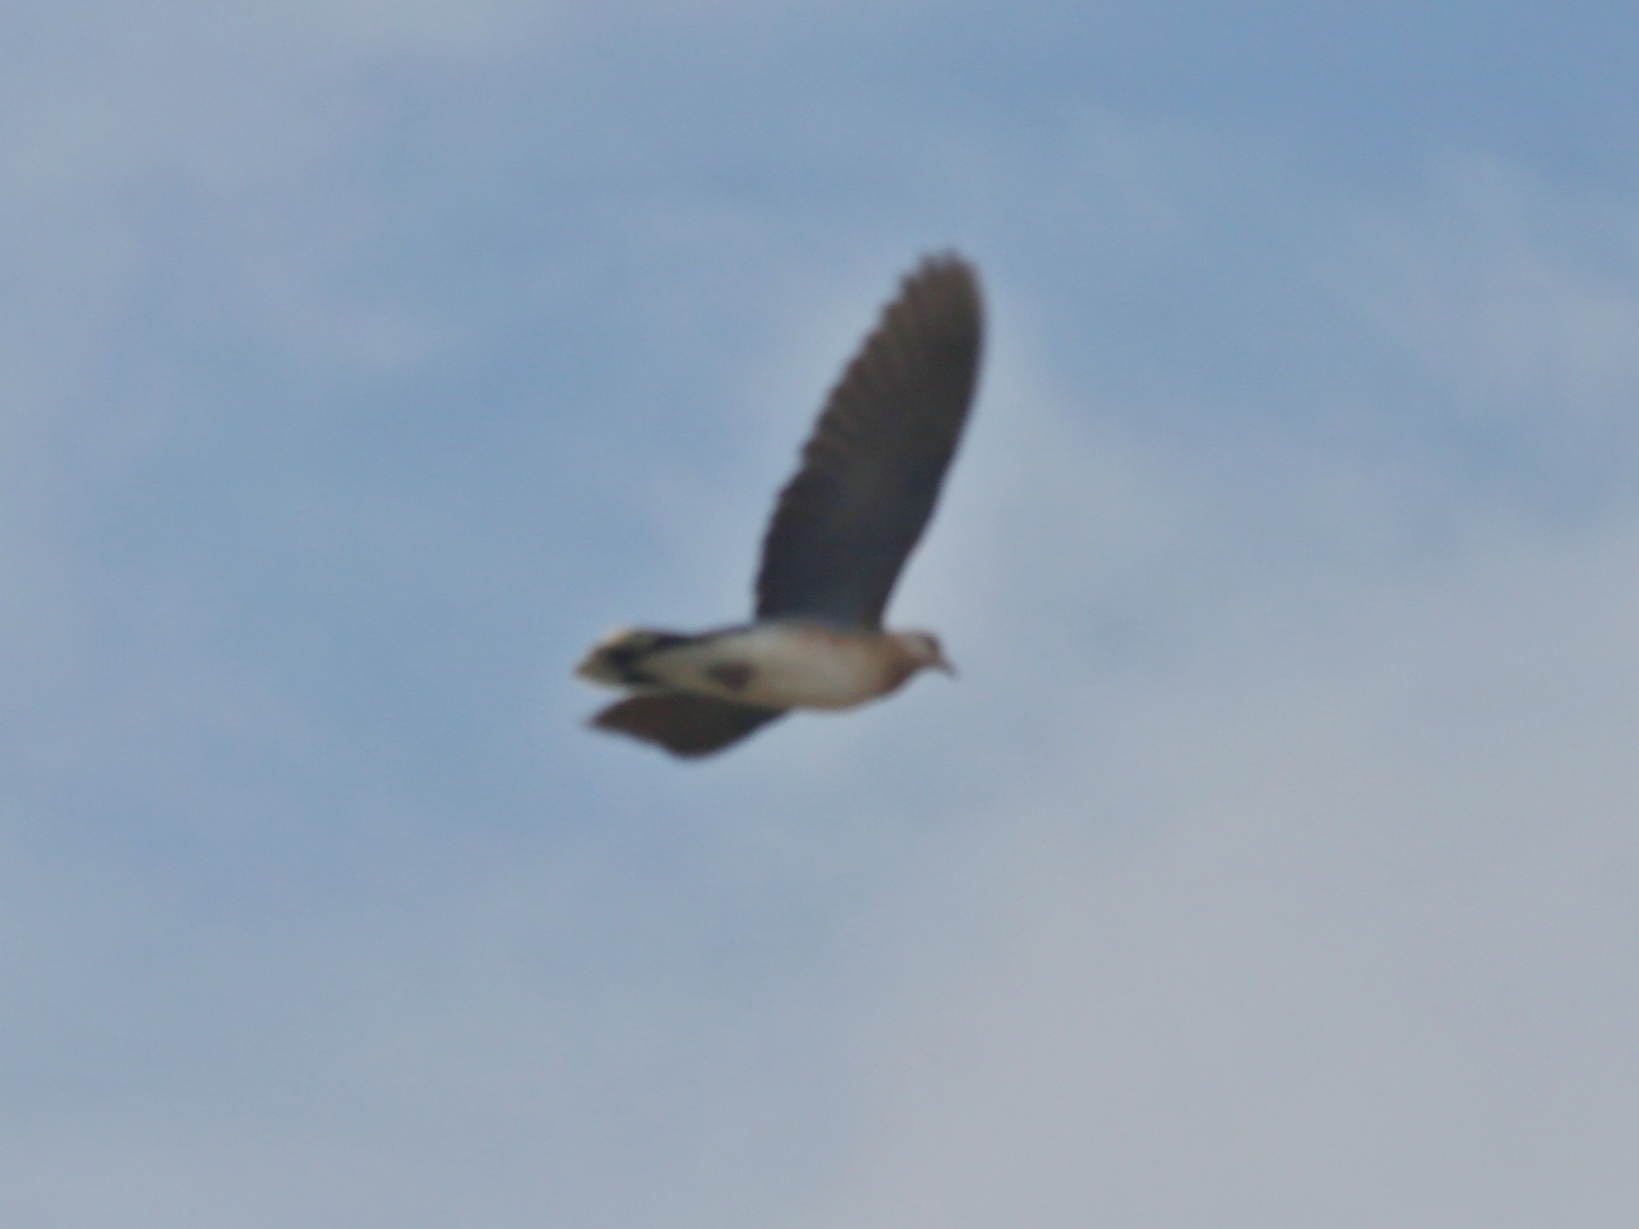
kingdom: Animalia
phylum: Chordata
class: Aves
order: Columbiformes
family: Columbidae
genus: Streptopelia
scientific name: Streptopelia orientalis
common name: Oriental turtle dove
